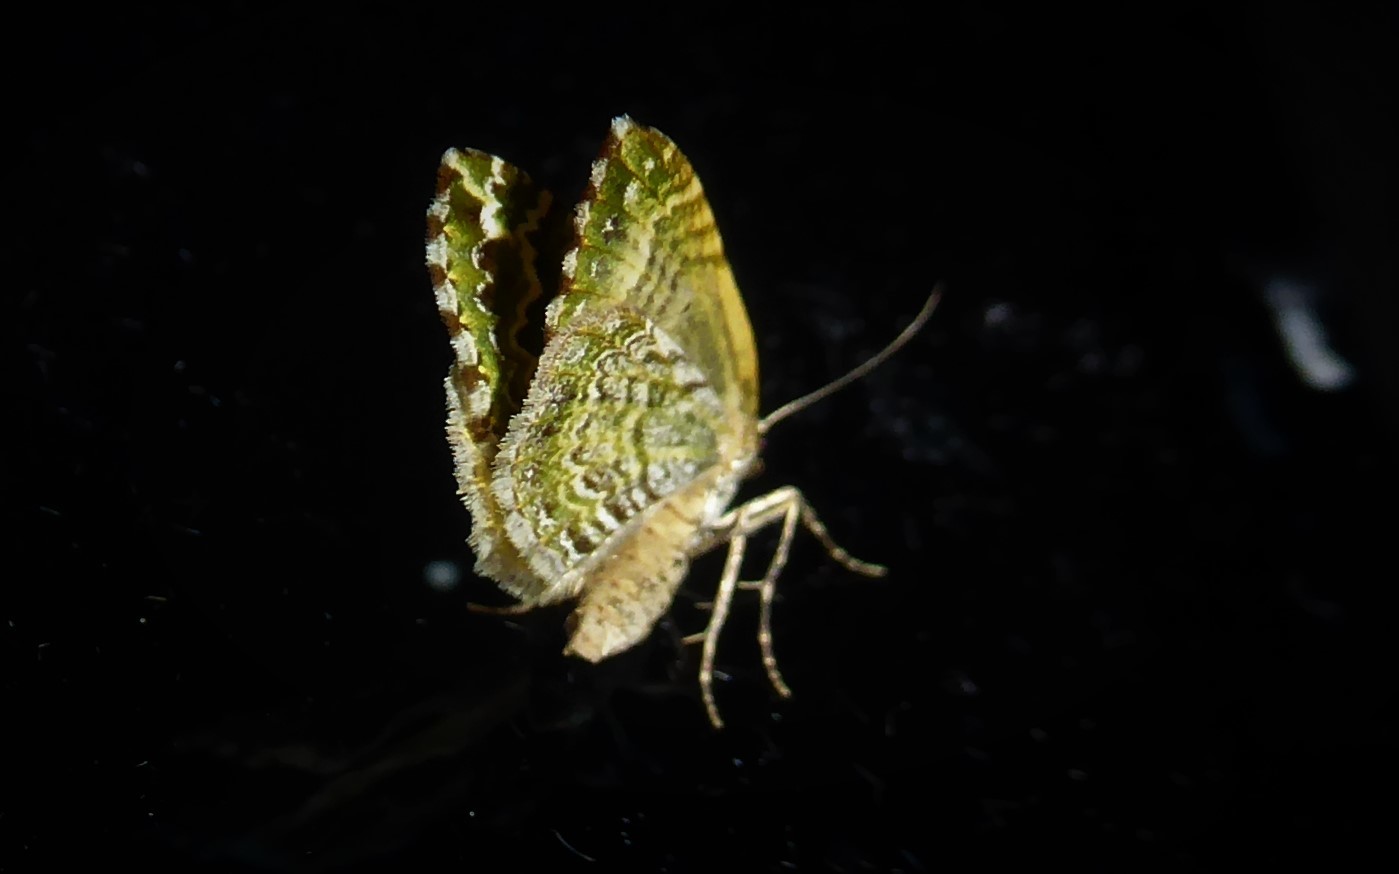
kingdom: Animalia
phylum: Arthropoda
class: Insecta
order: Lepidoptera
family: Geometridae
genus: Asaphodes
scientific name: Asaphodes beata
